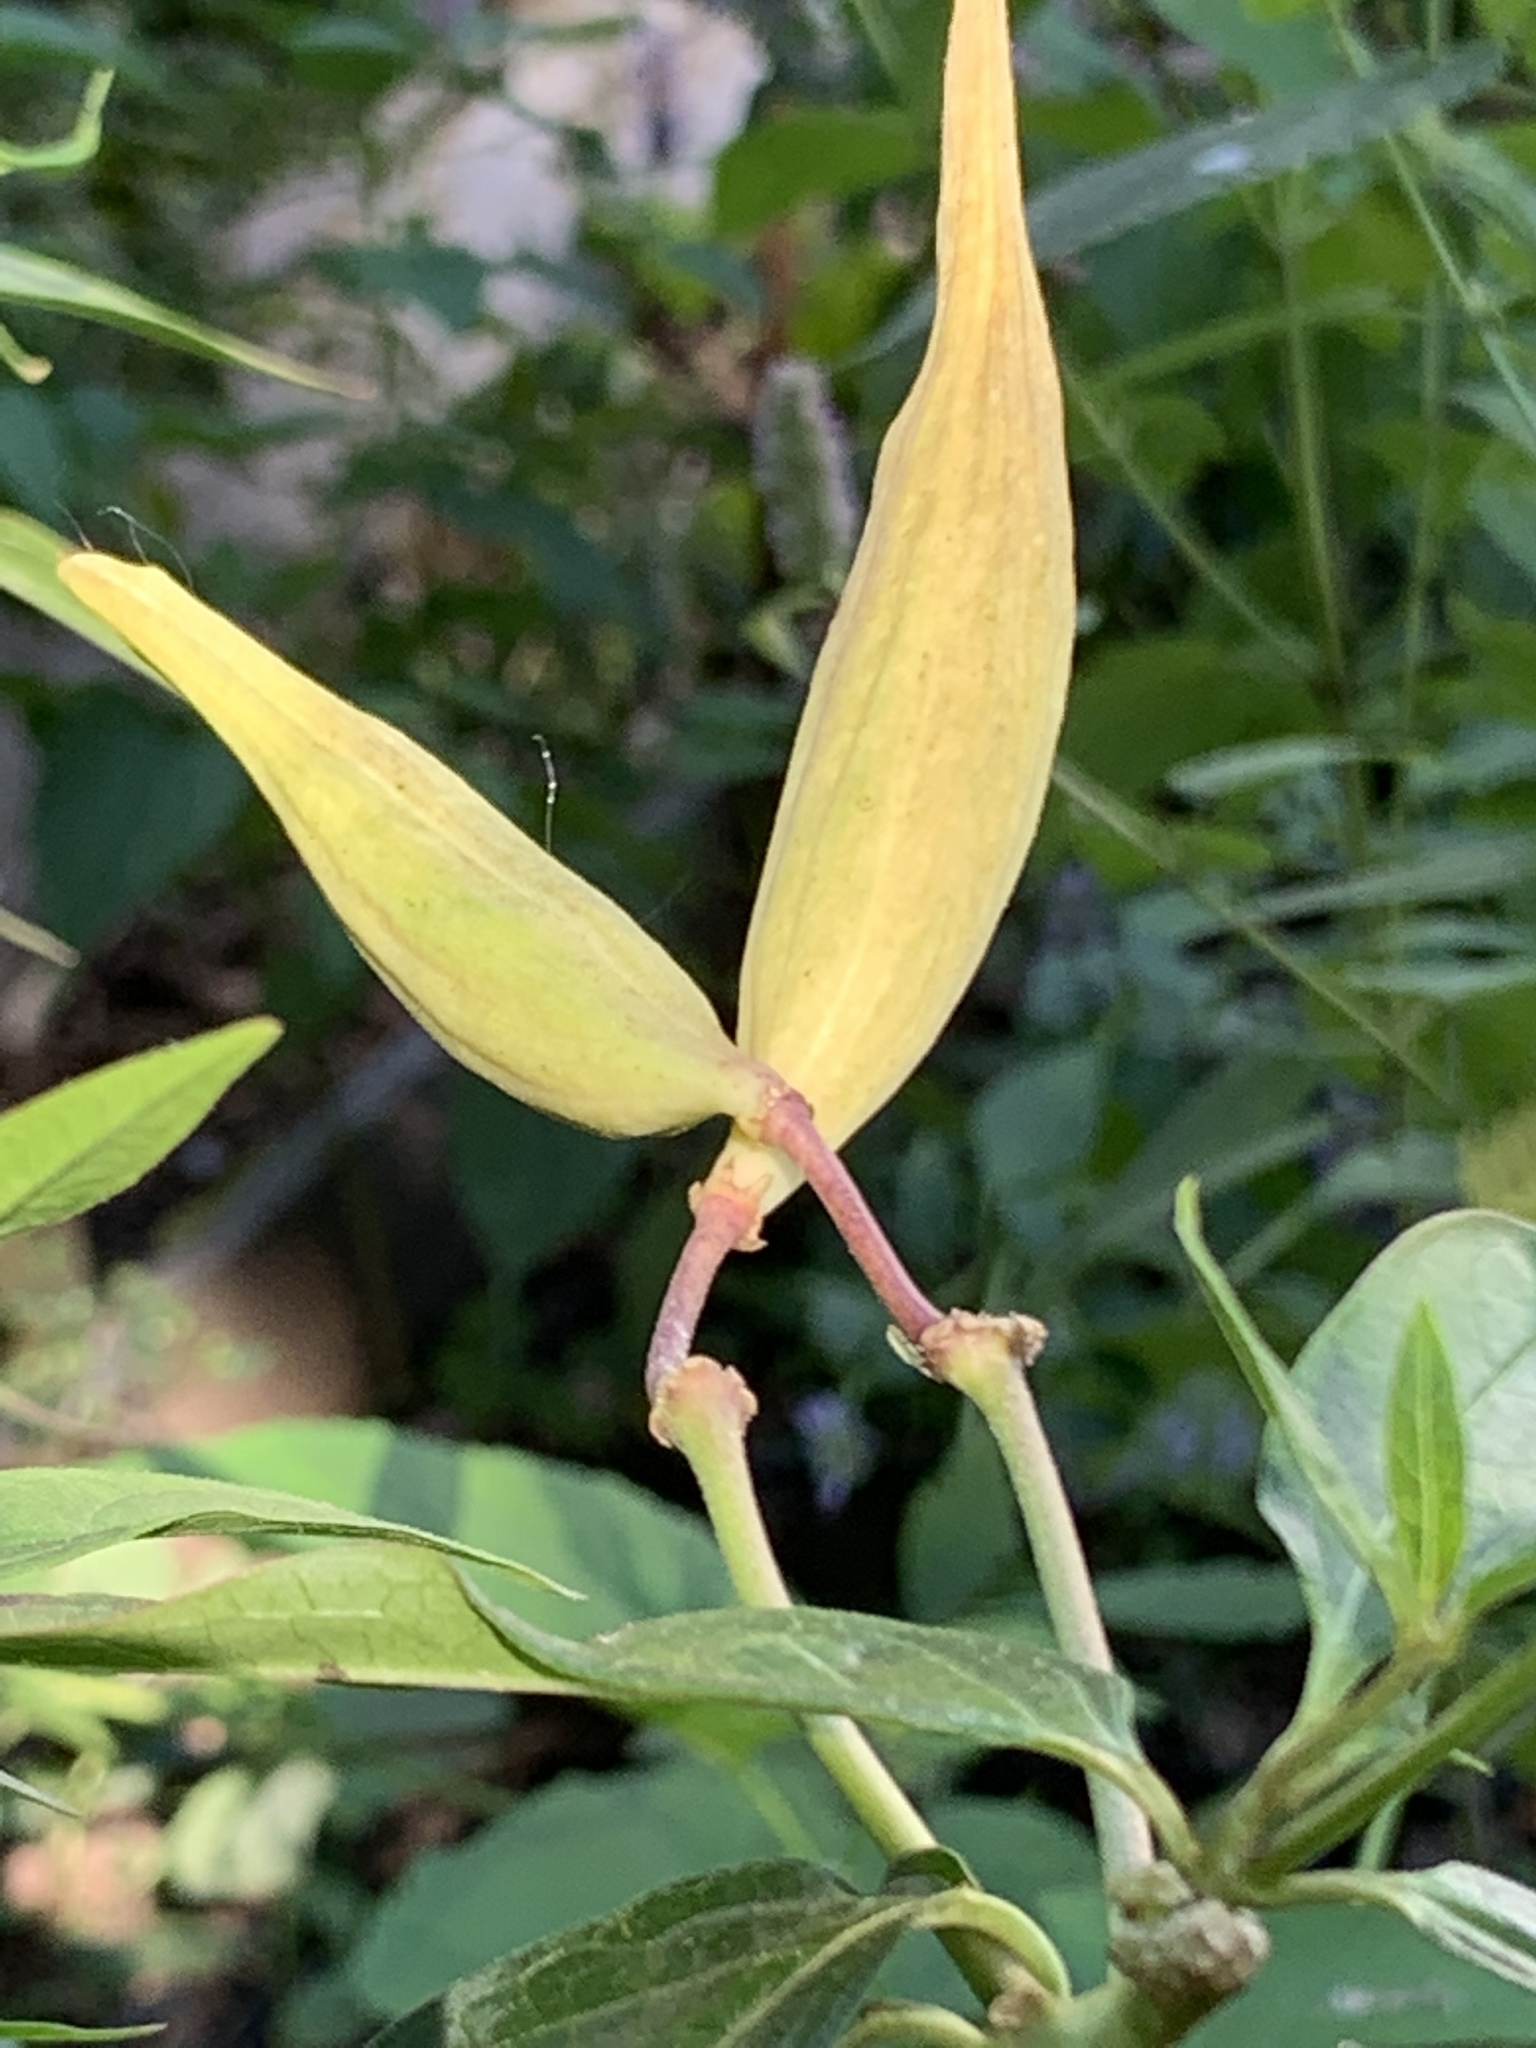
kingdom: Plantae
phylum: Tracheophyta
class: Magnoliopsida
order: Gentianales
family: Apocynaceae
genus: Asclepias
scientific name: Asclepias incarnata
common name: Swamp milkweed
